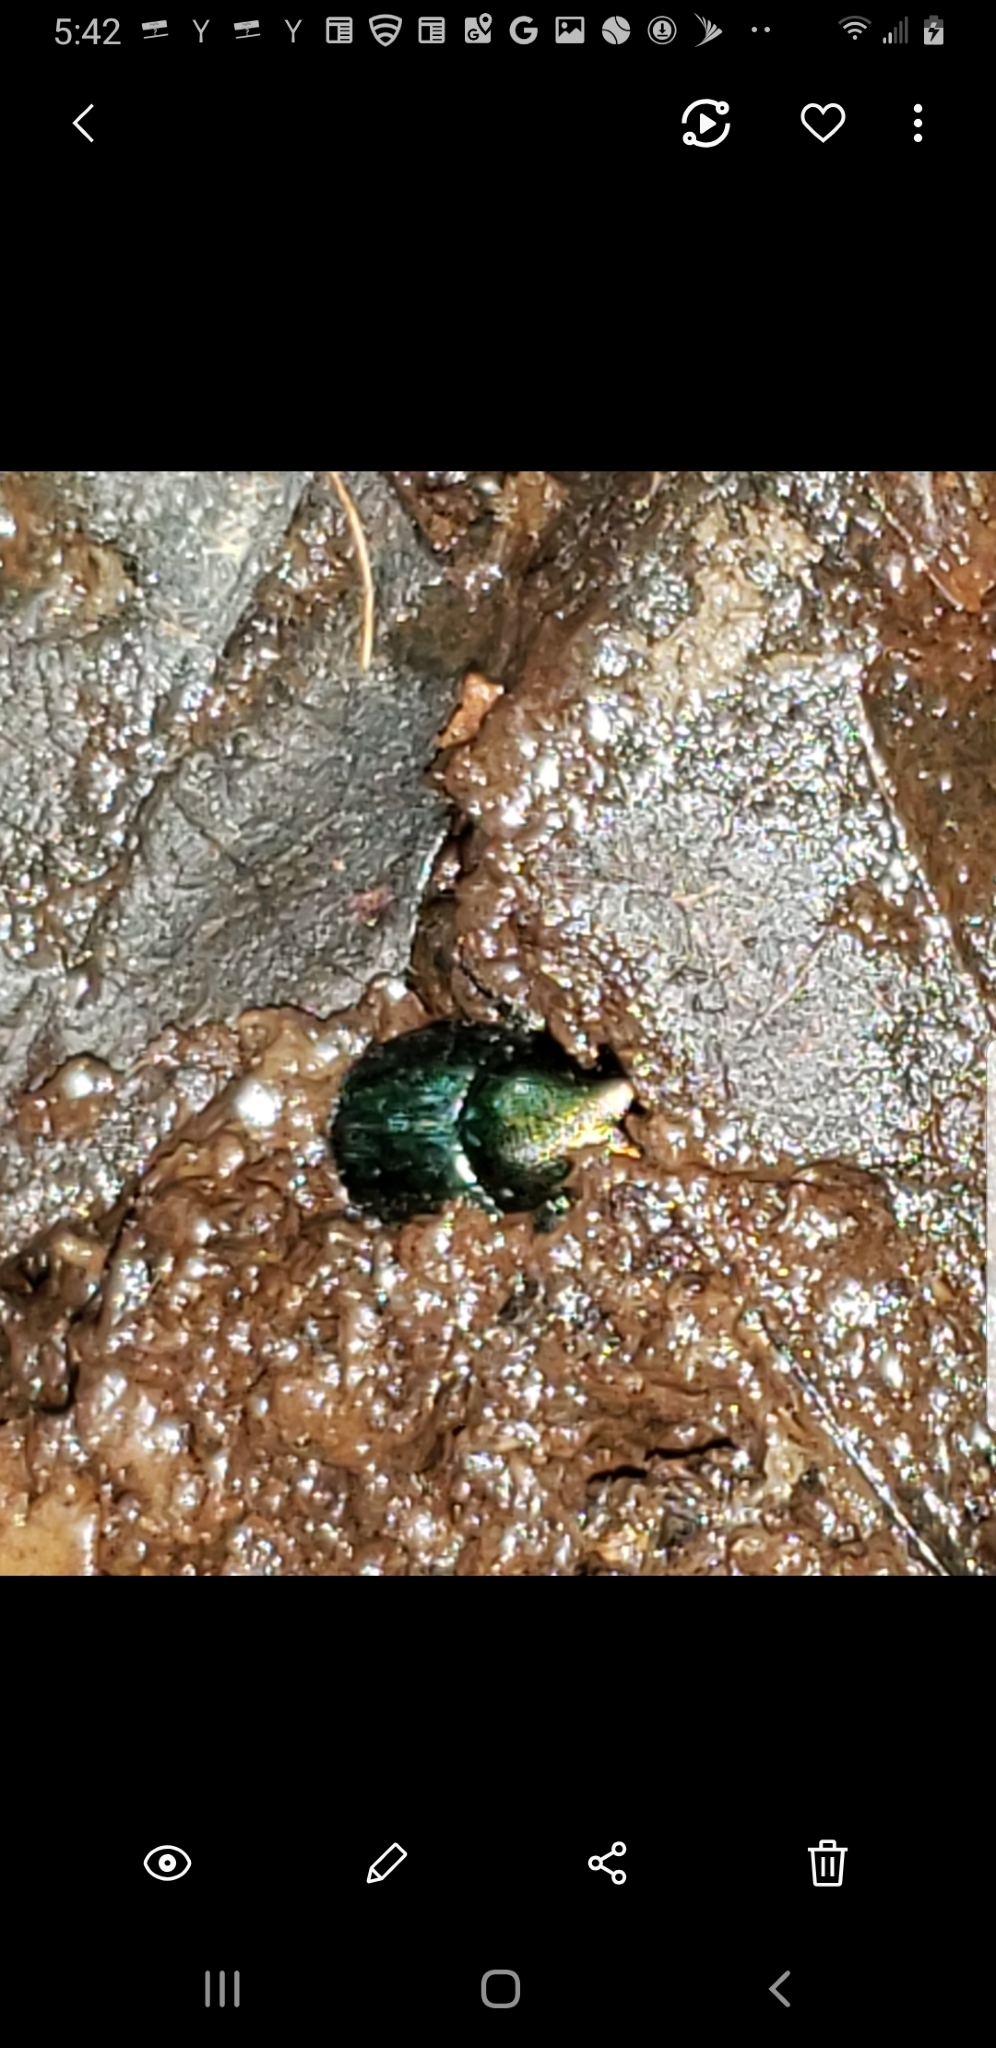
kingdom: Animalia
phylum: Arthropoda
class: Insecta
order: Coleoptera
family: Scarabaeidae
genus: Onthophagus
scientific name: Onthophagus orpheus
